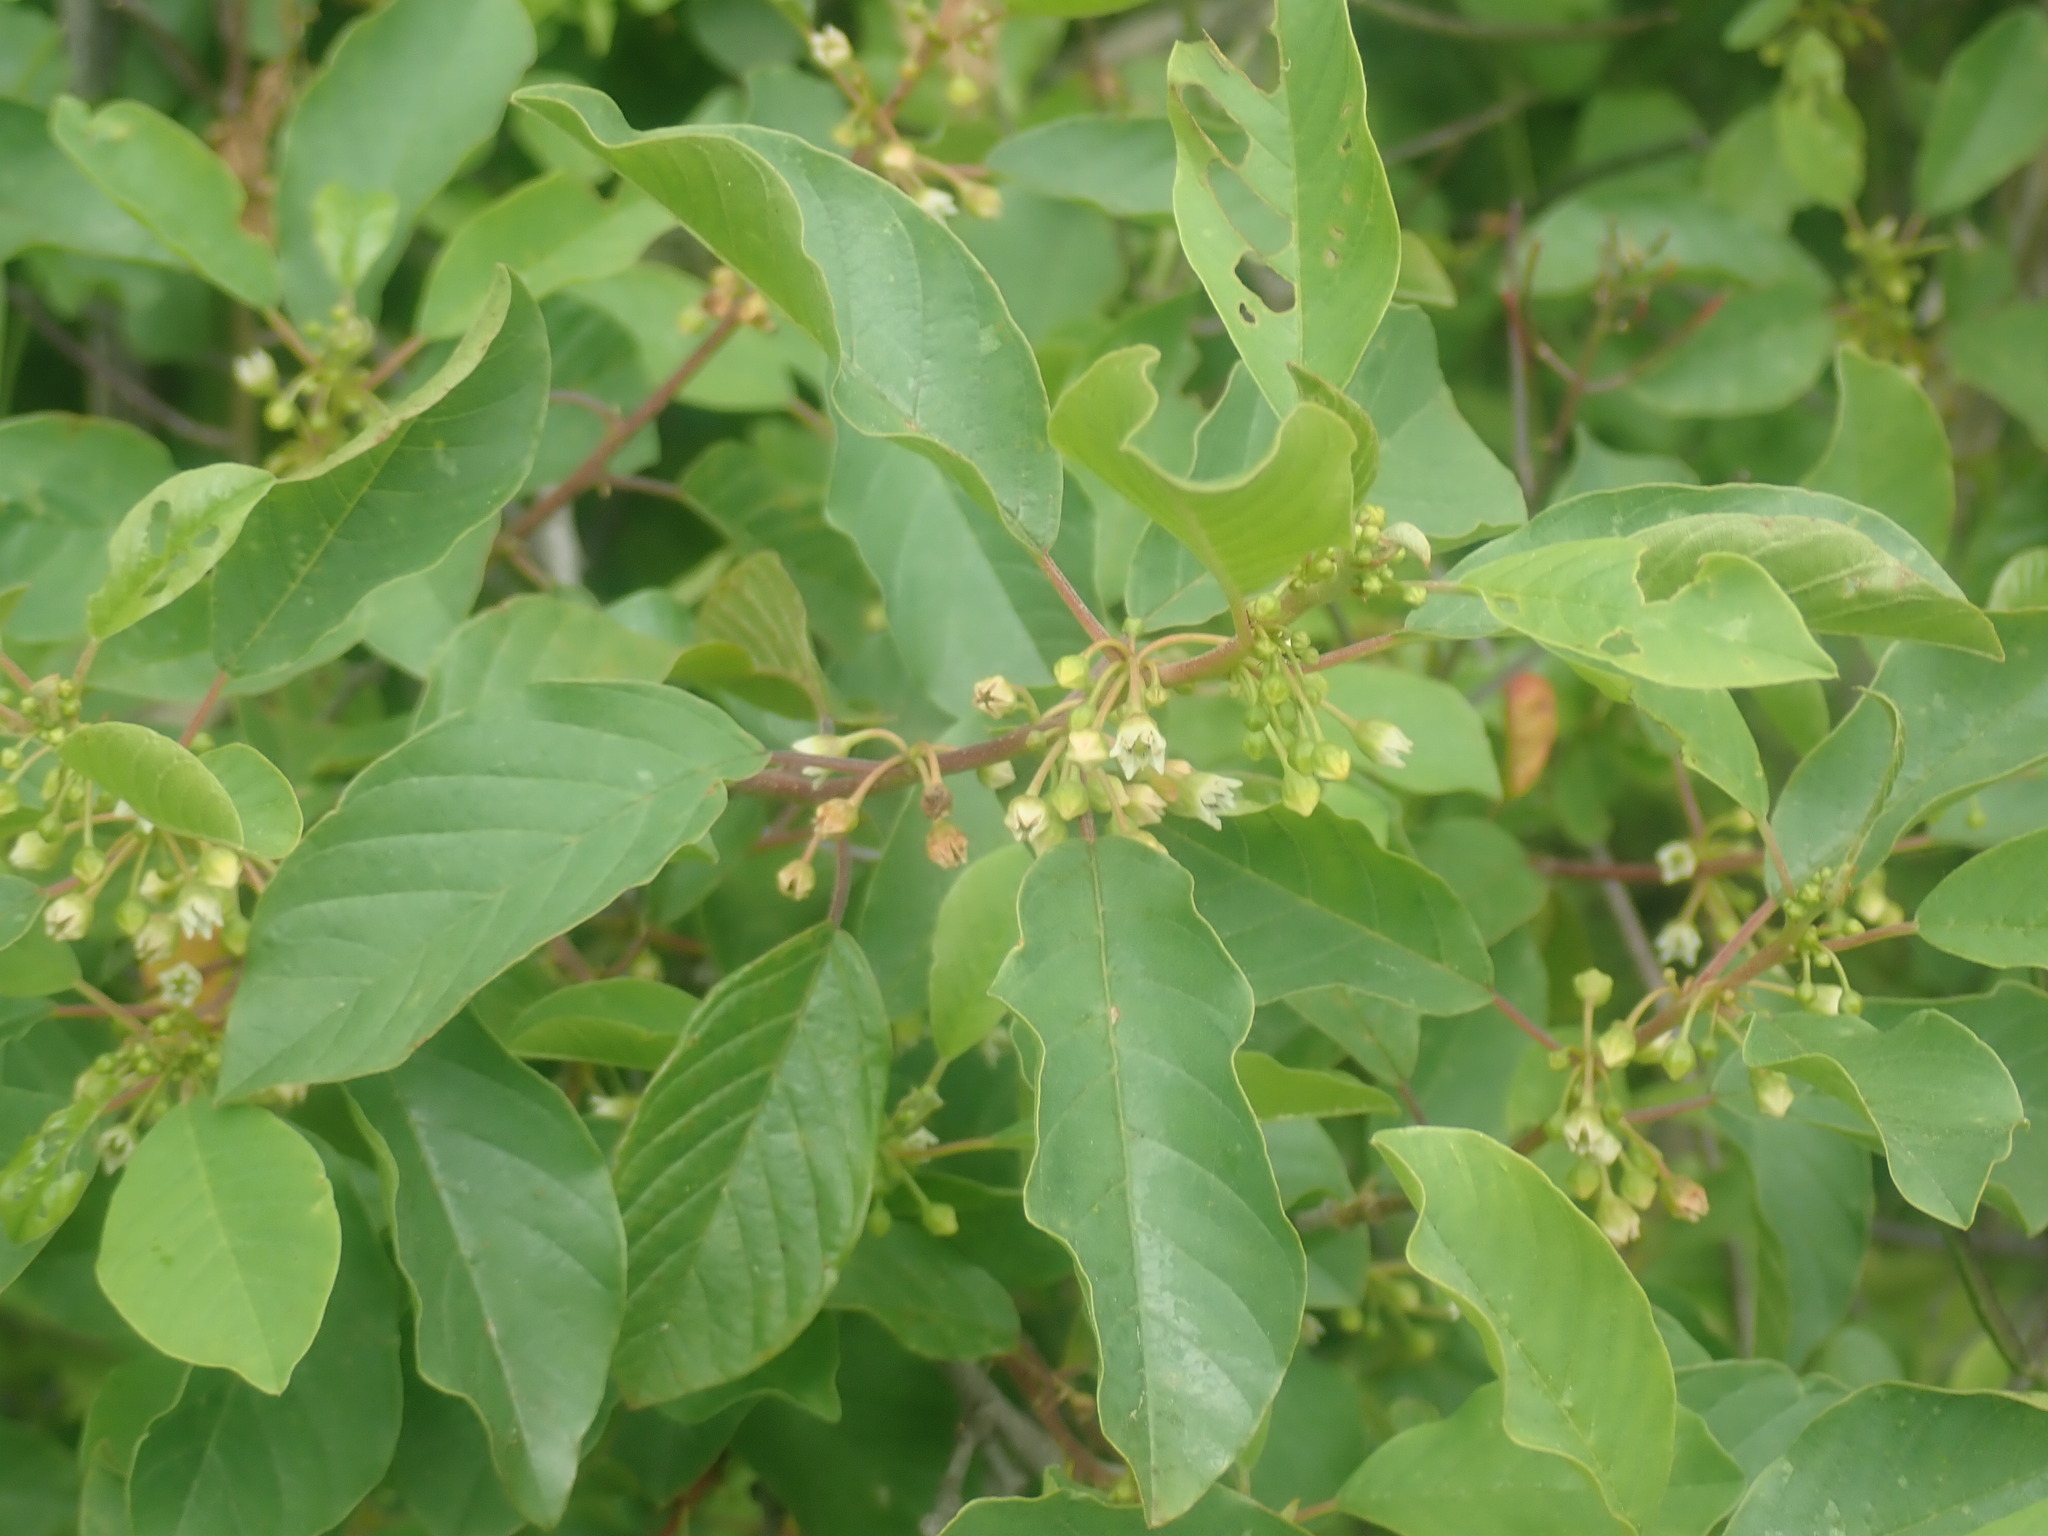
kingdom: Plantae
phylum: Tracheophyta
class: Magnoliopsida
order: Rosales
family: Rhamnaceae
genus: Frangula
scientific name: Frangula alnus
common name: Alder buckthorn
